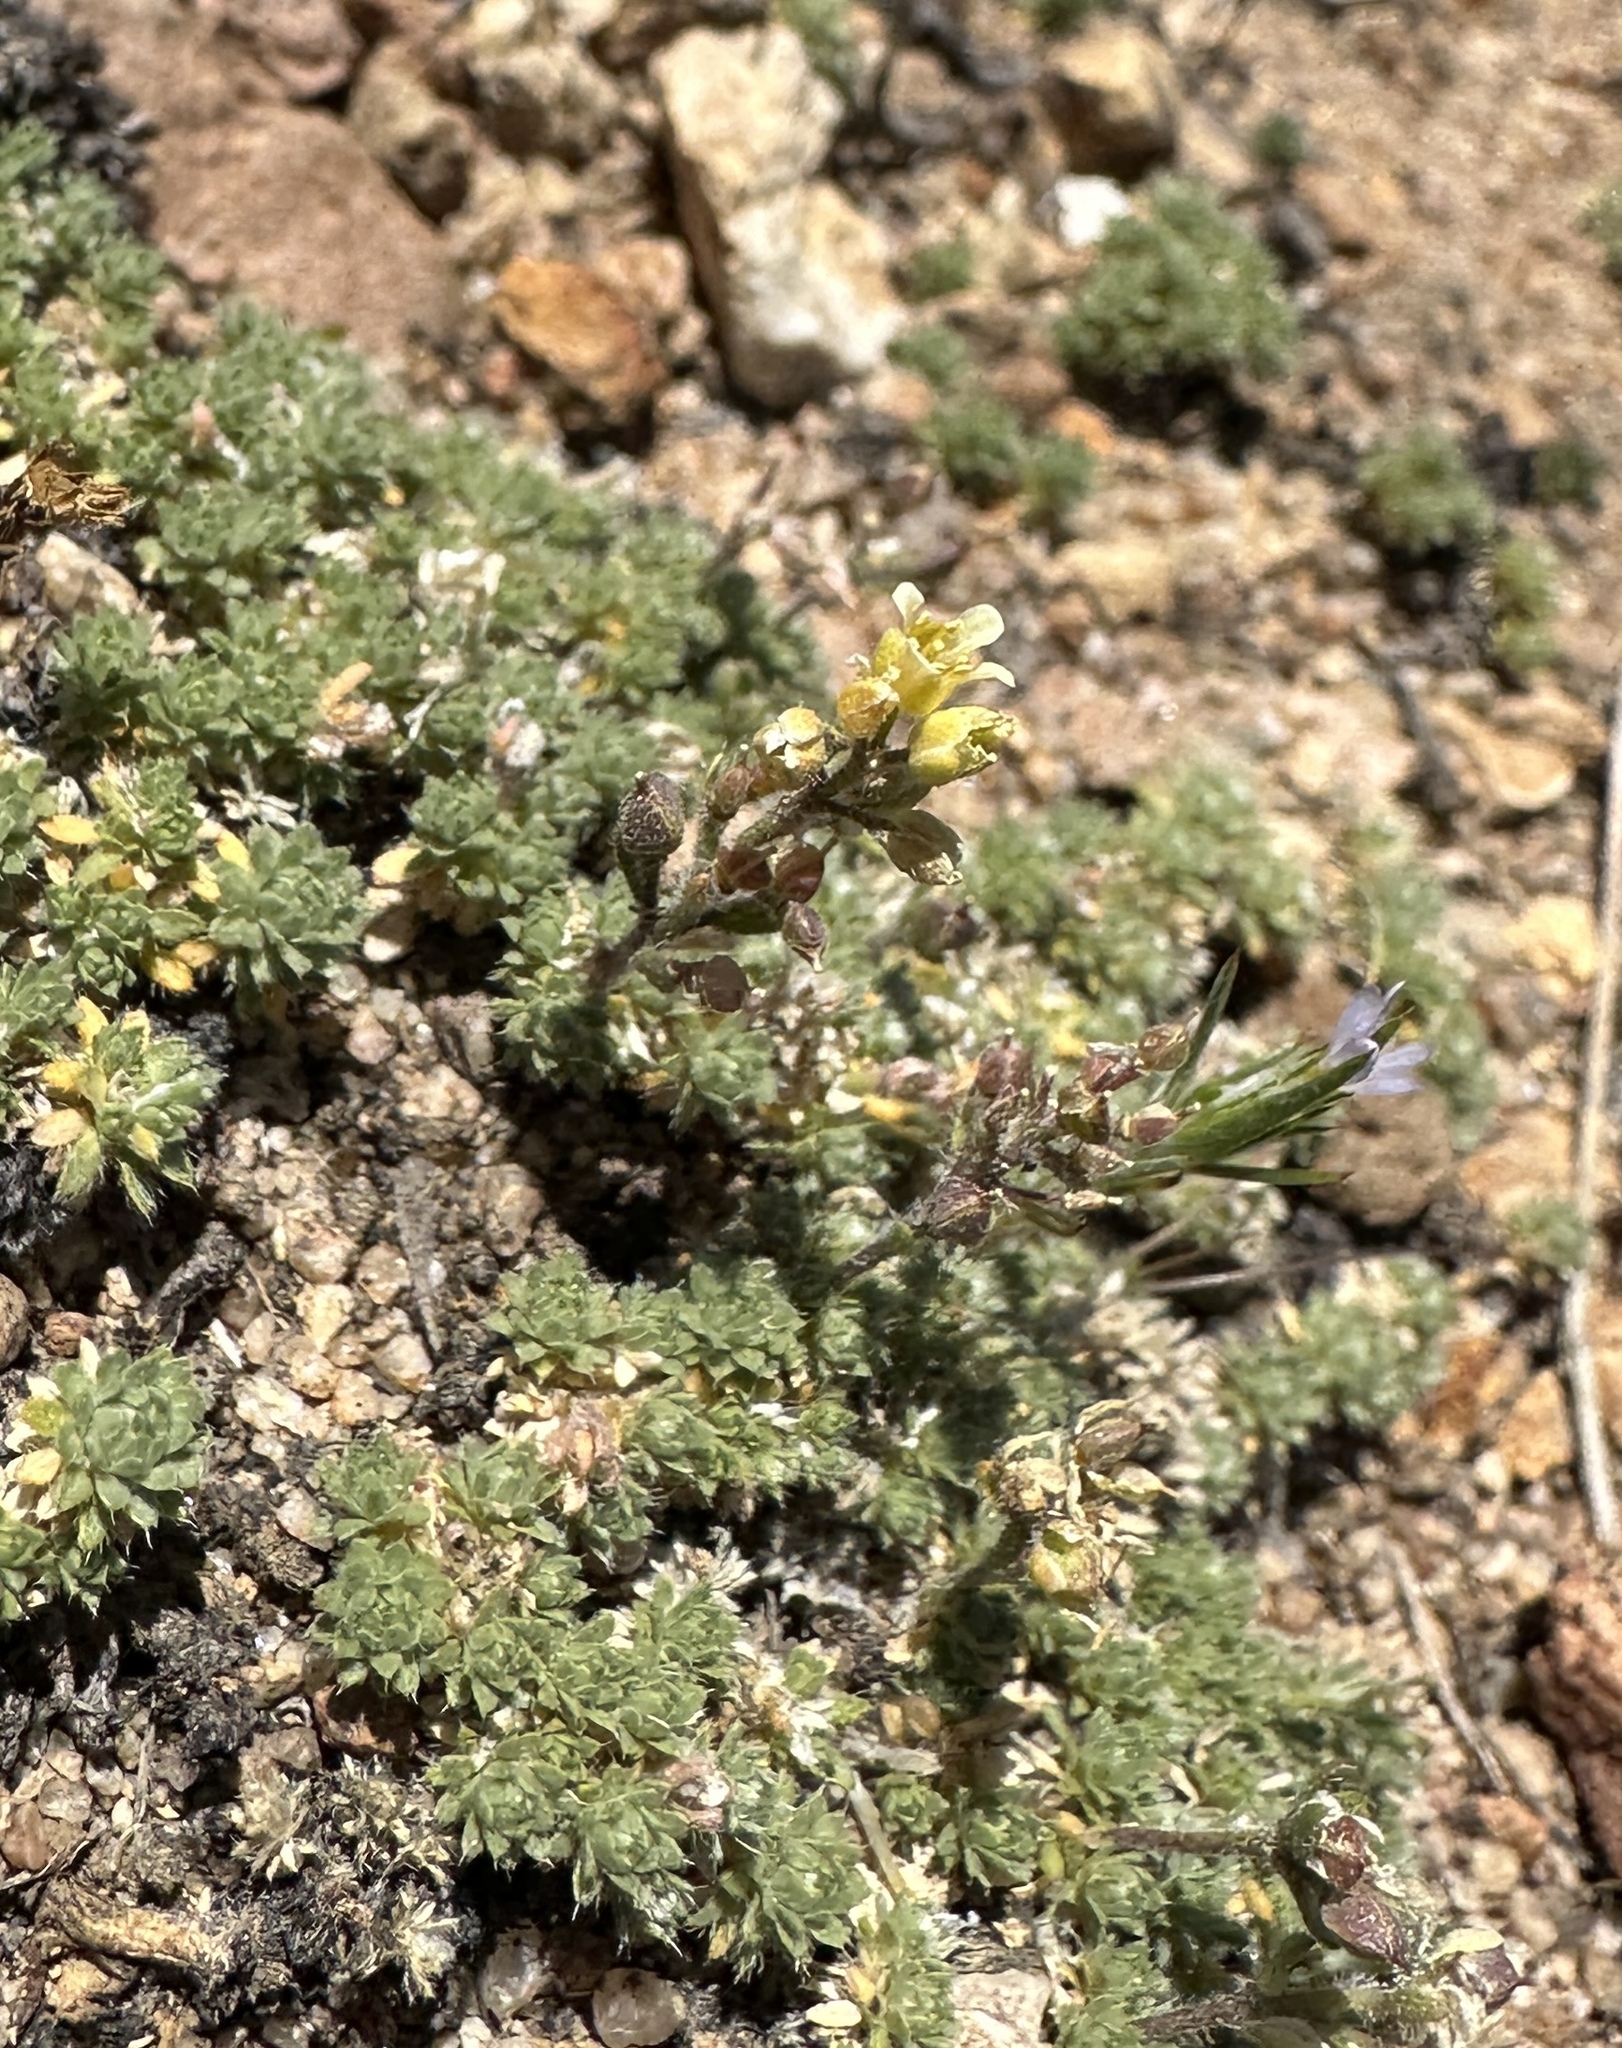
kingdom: Plantae
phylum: Tracheophyta
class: Magnoliopsida
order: Brassicales
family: Brassicaceae
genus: Cusickiella
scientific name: Cusickiella quadricostata
